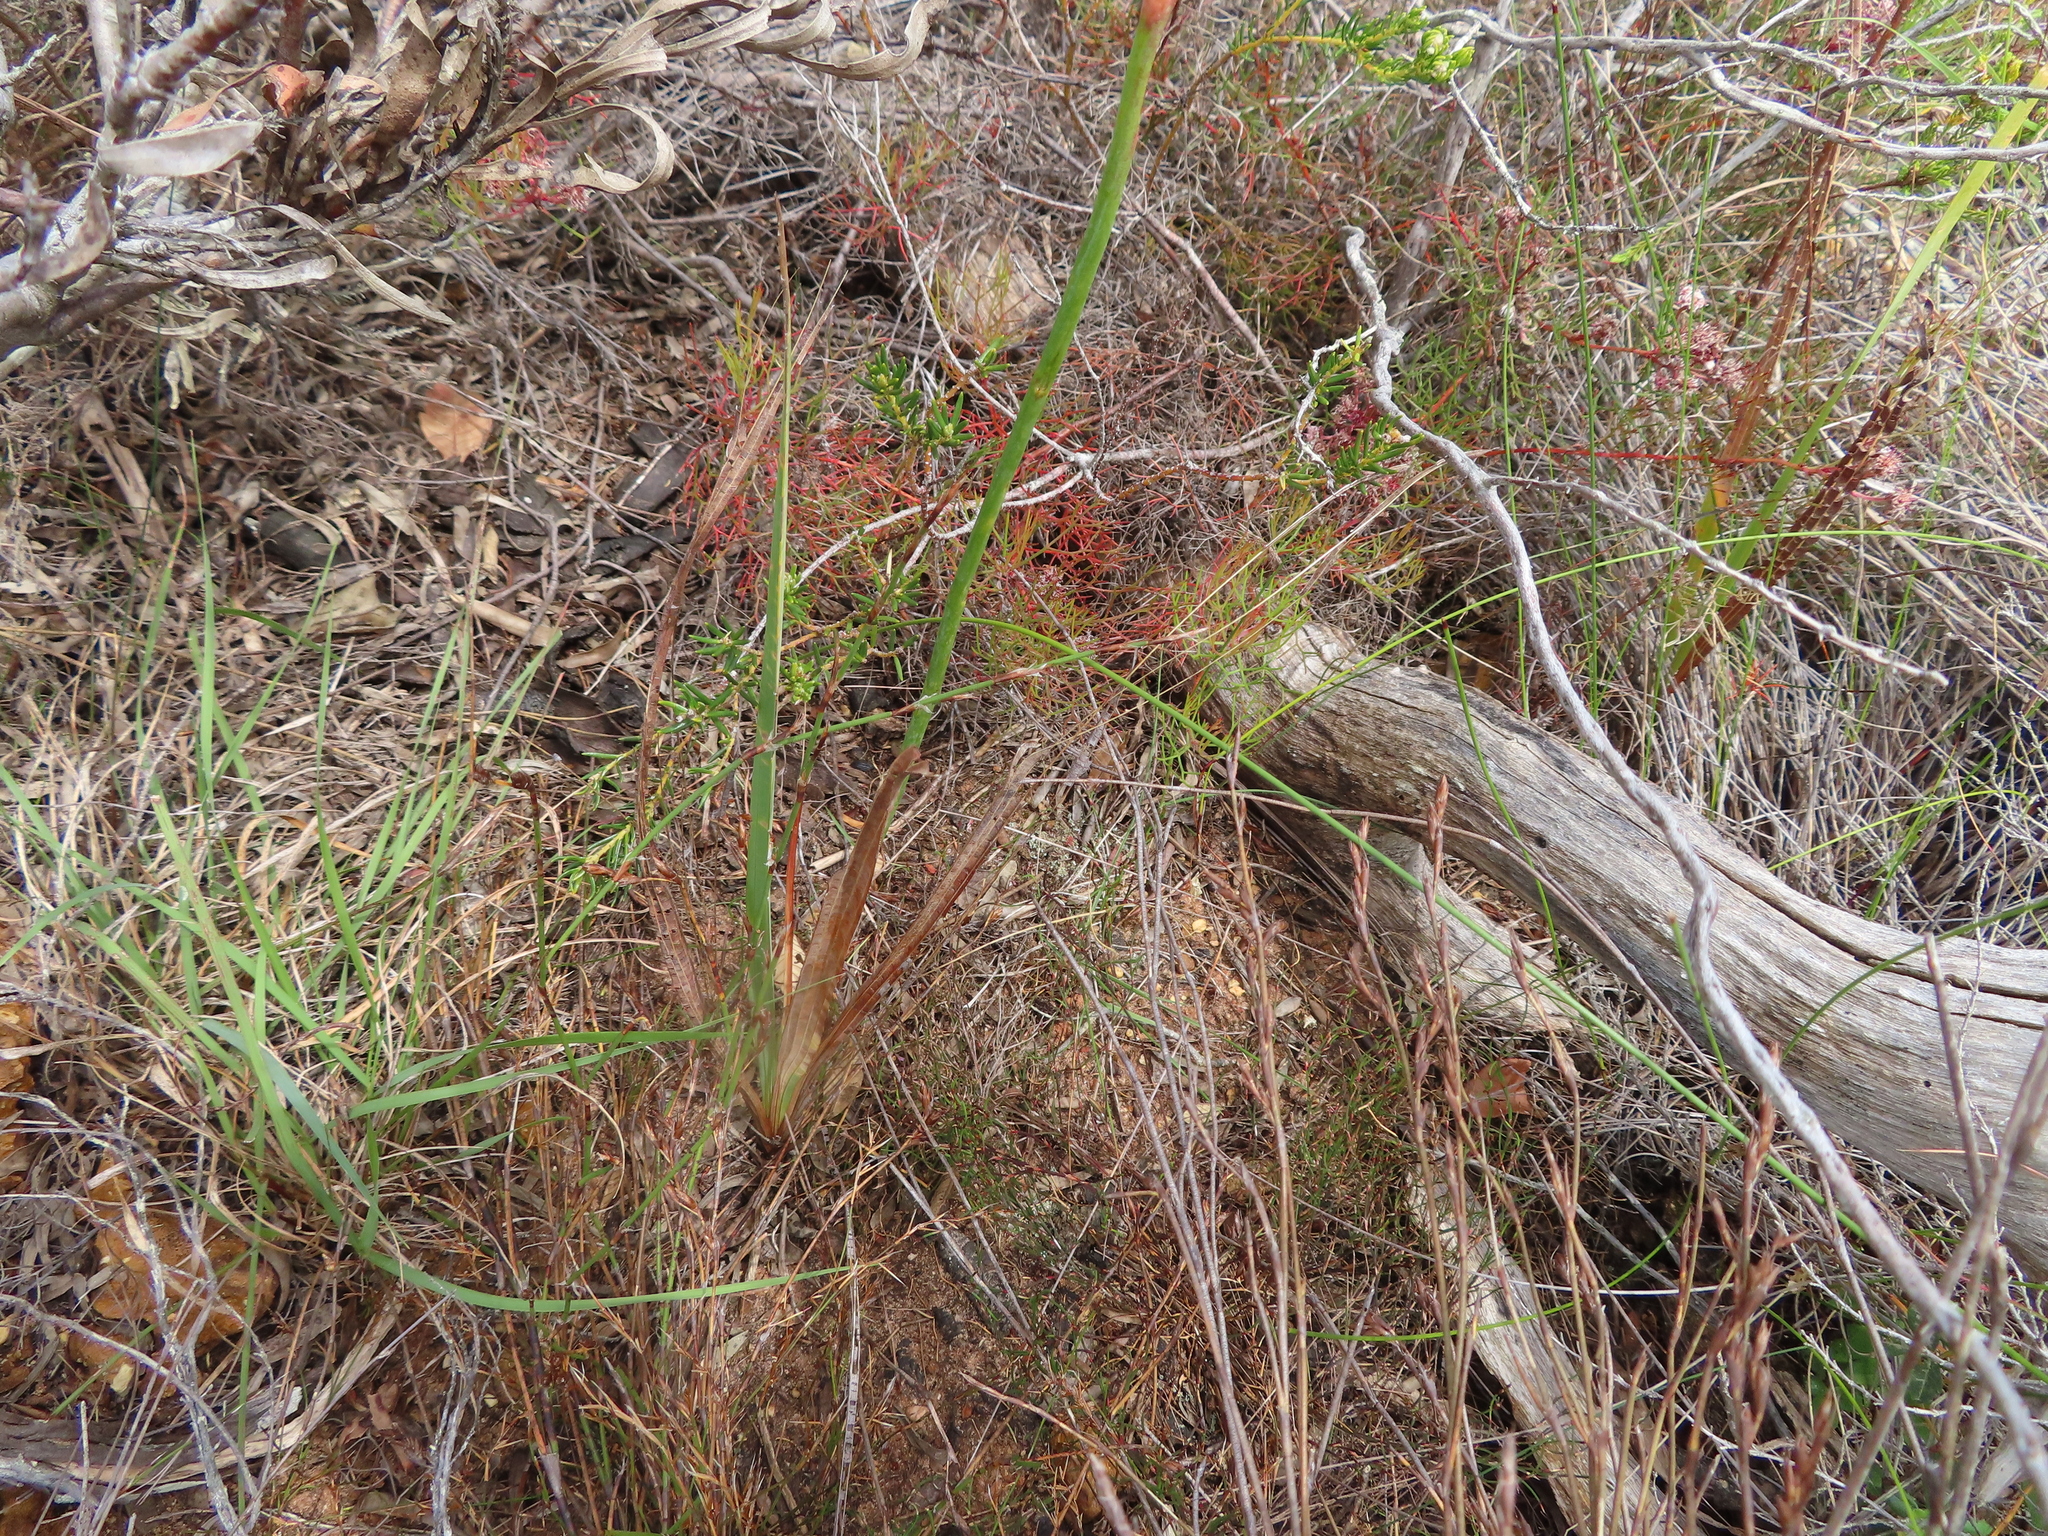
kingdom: Plantae
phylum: Tracheophyta
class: Liliopsida
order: Asparagales
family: Iridaceae
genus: Tritoniopsis
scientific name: Tritoniopsis antholyza
